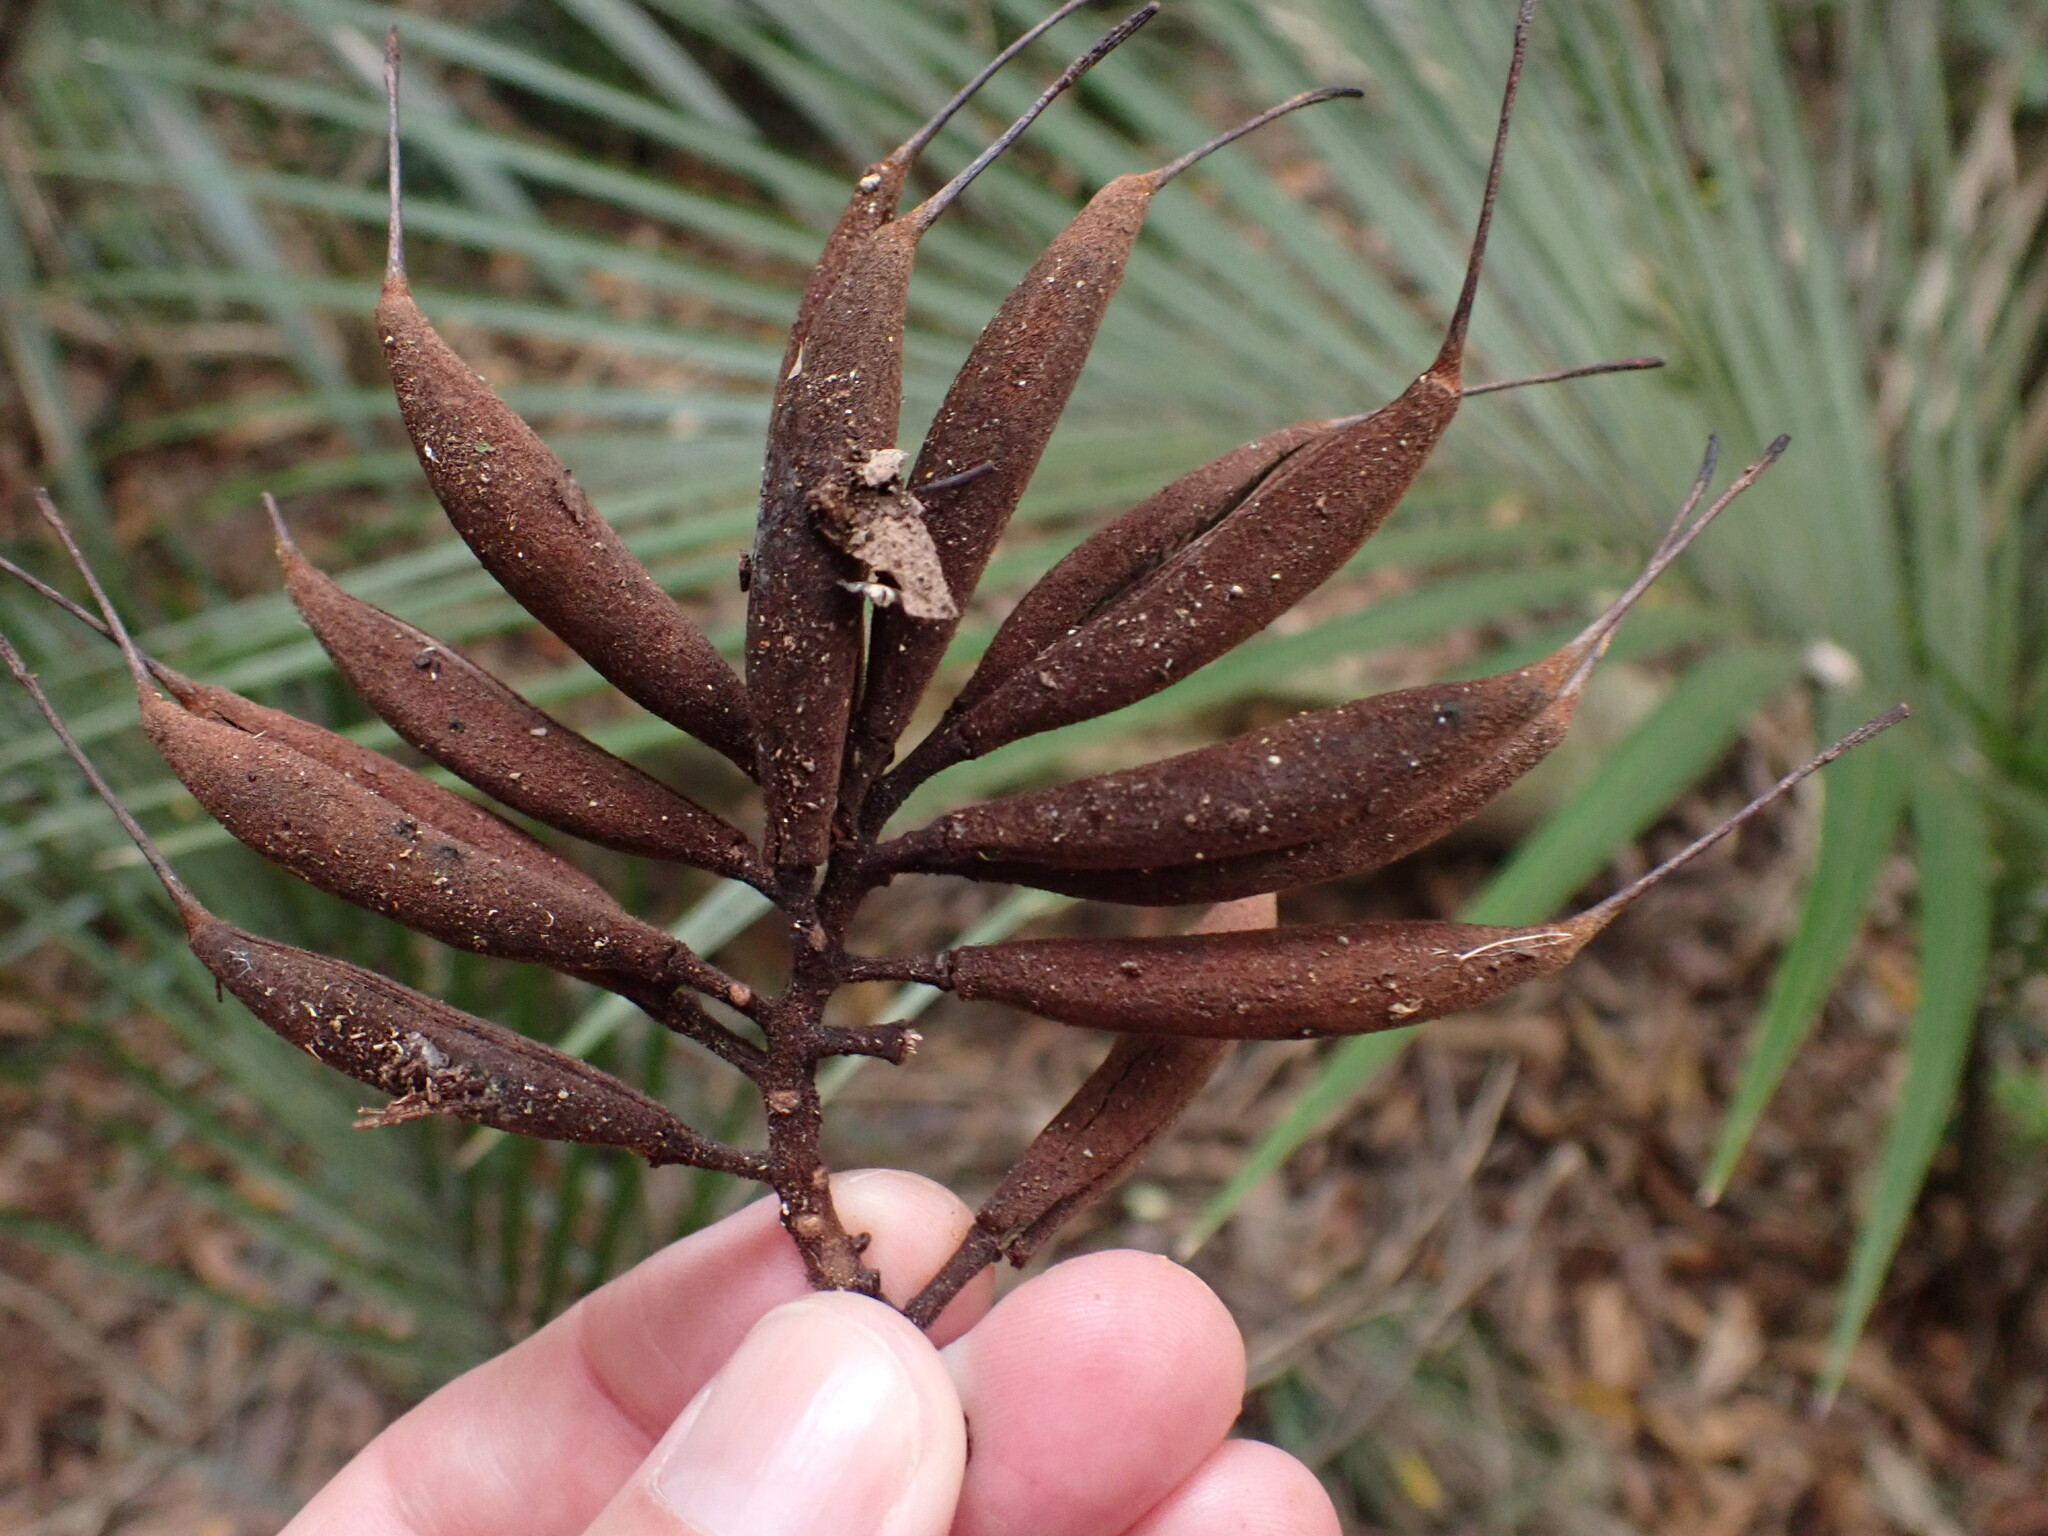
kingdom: Plantae
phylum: Tracheophyta
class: Magnoliopsida
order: Proteales
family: Proteaceae
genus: Knightia
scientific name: Knightia excelsa
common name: New zealand-honeysuckle
